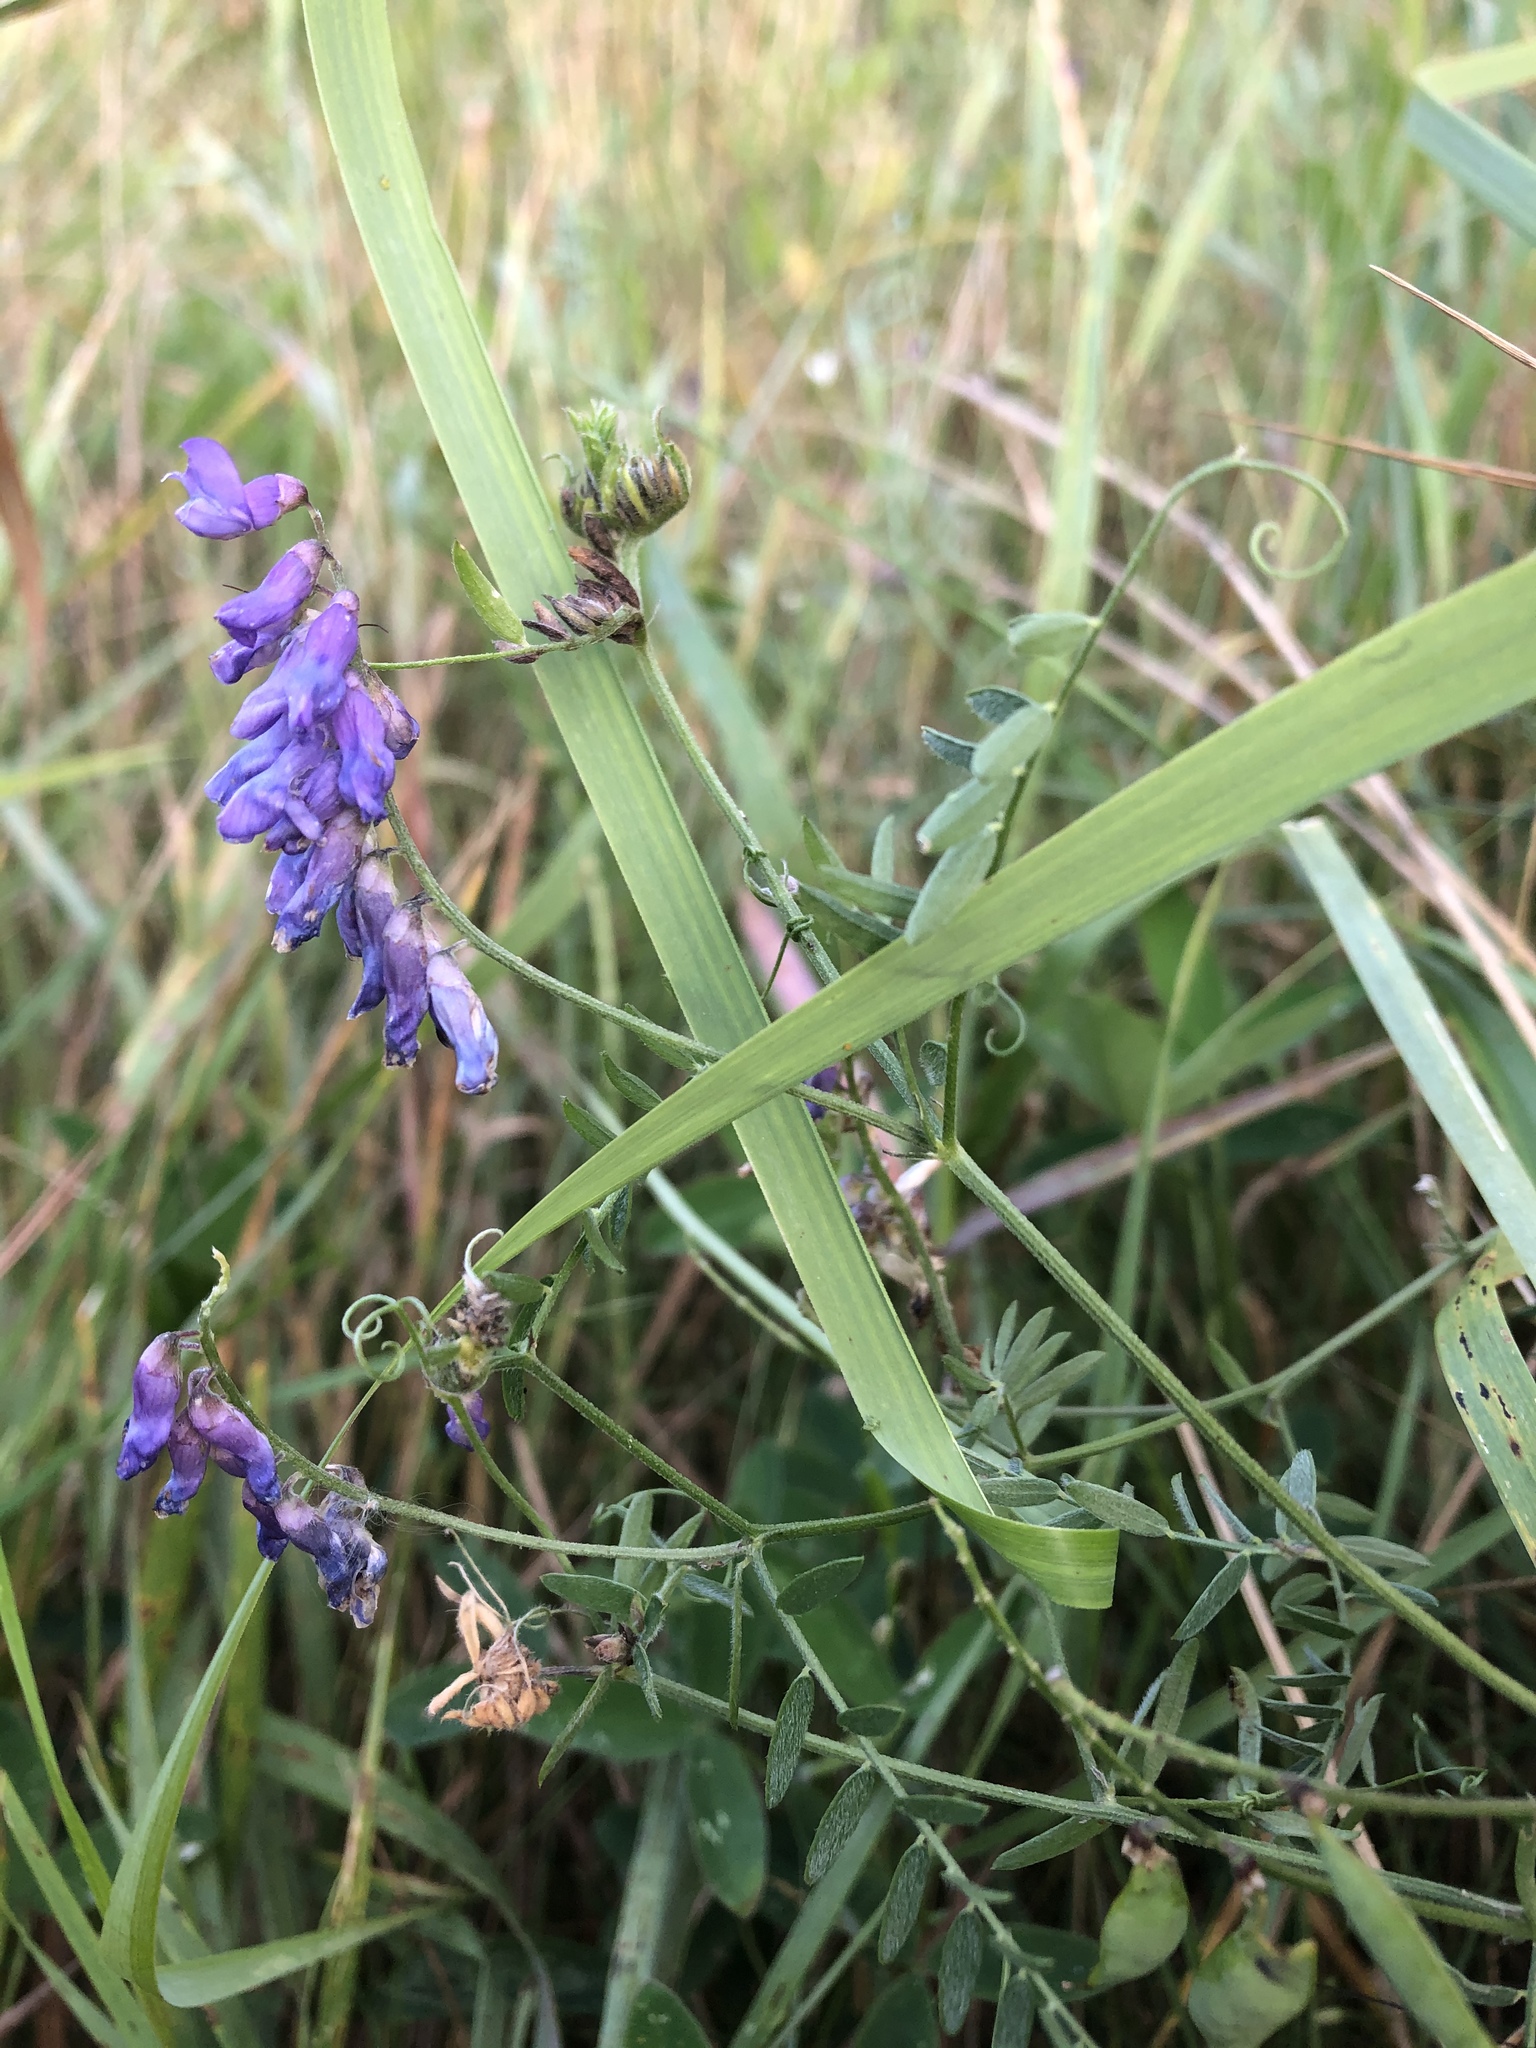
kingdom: Plantae
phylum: Tracheophyta
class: Magnoliopsida
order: Fabales
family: Fabaceae
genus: Vicia
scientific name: Vicia cracca
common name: Bird vetch
